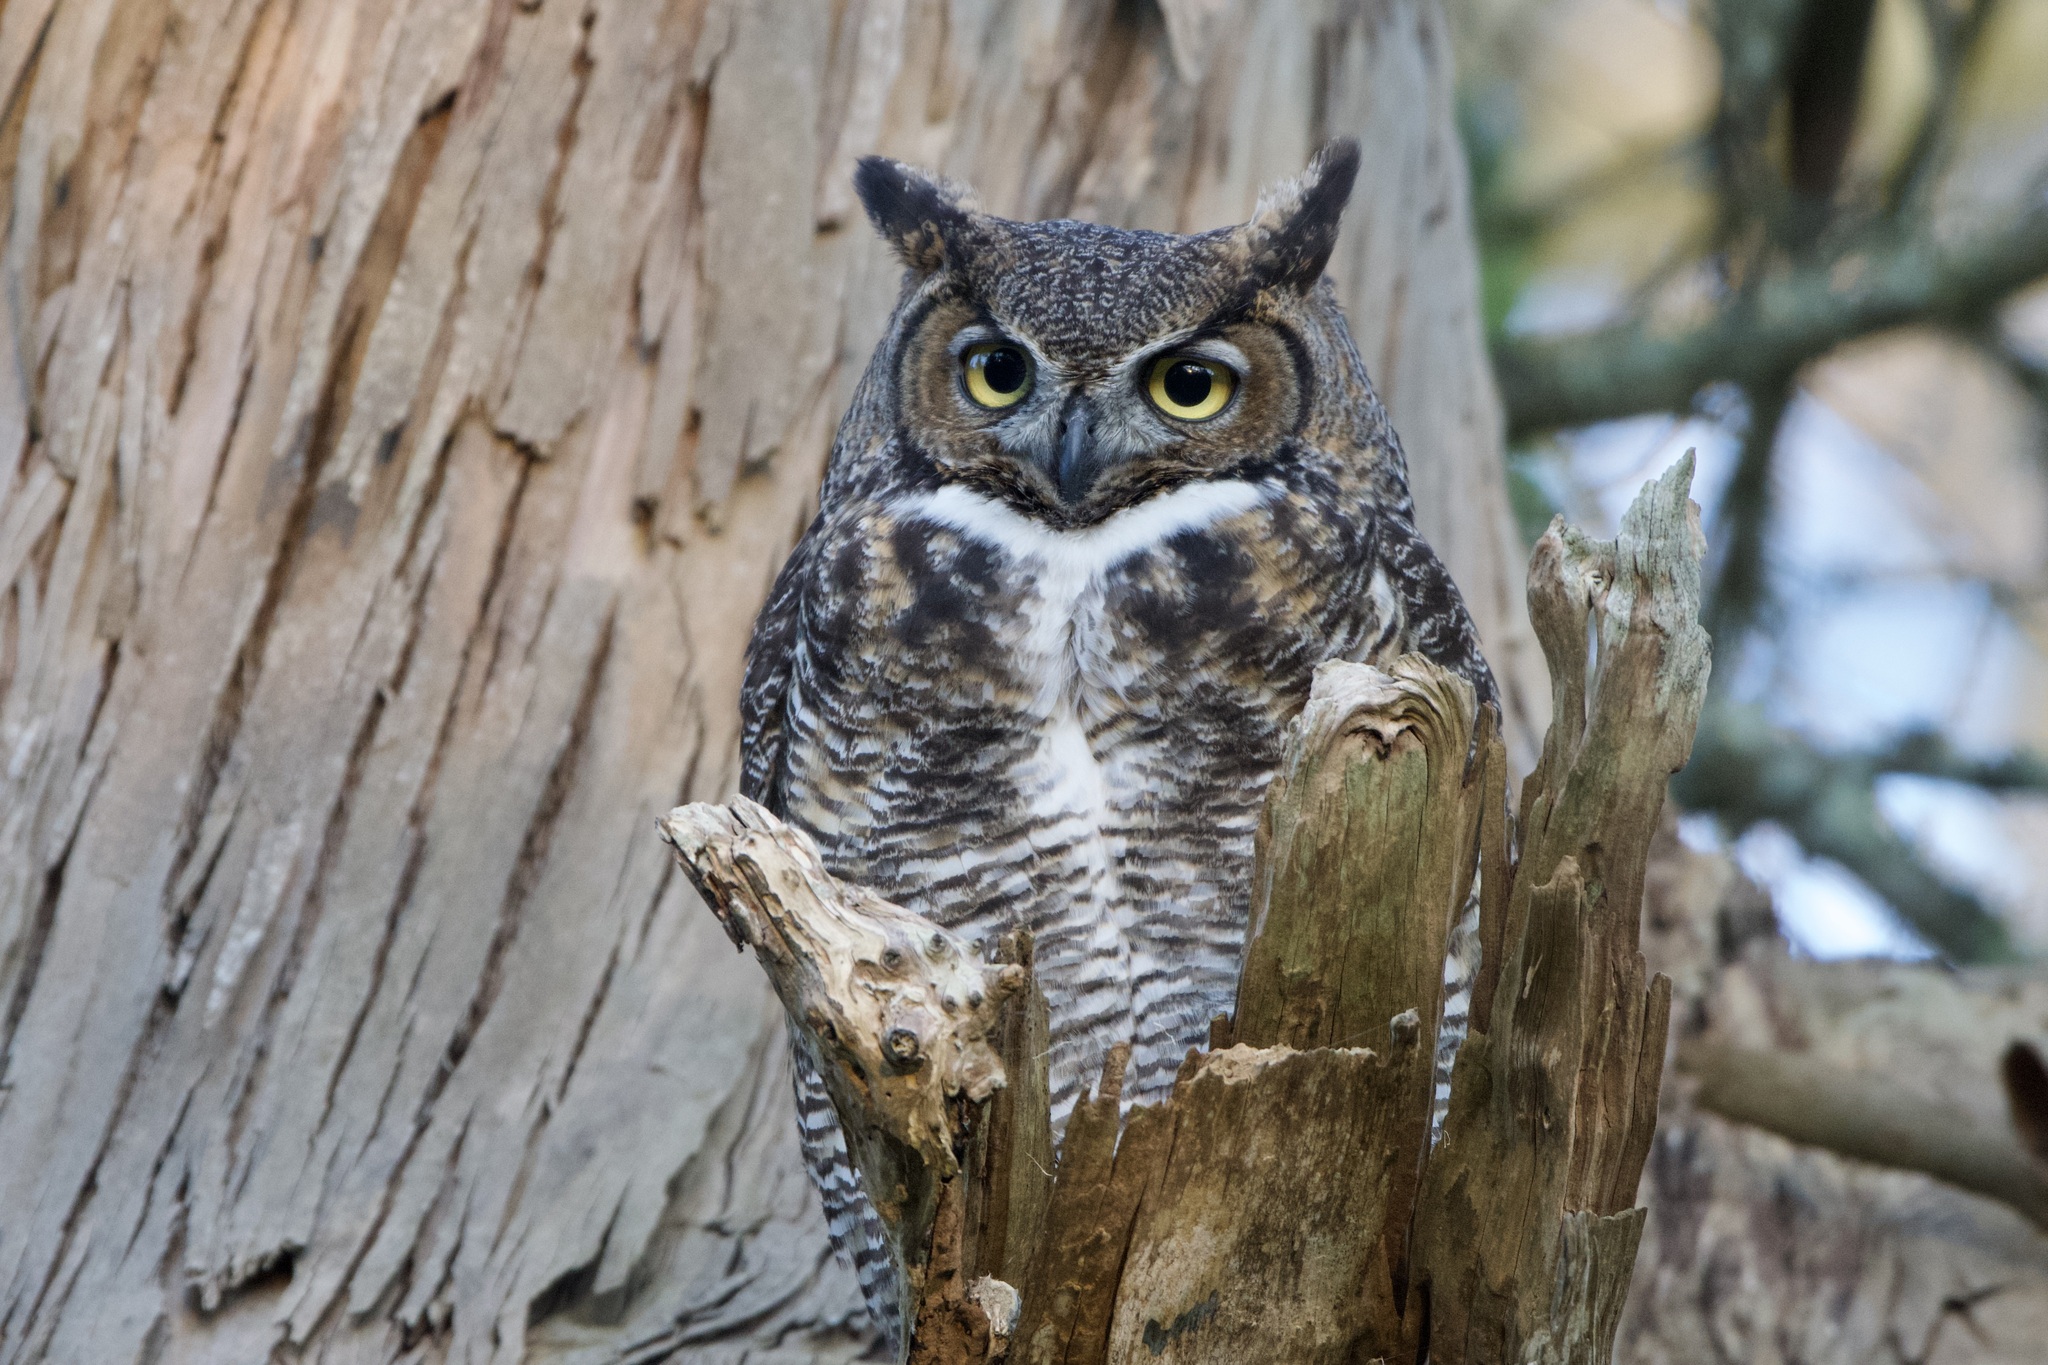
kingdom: Animalia
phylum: Chordata
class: Aves
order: Strigiformes
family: Strigidae
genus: Bubo
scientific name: Bubo virginianus
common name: Great horned owl
